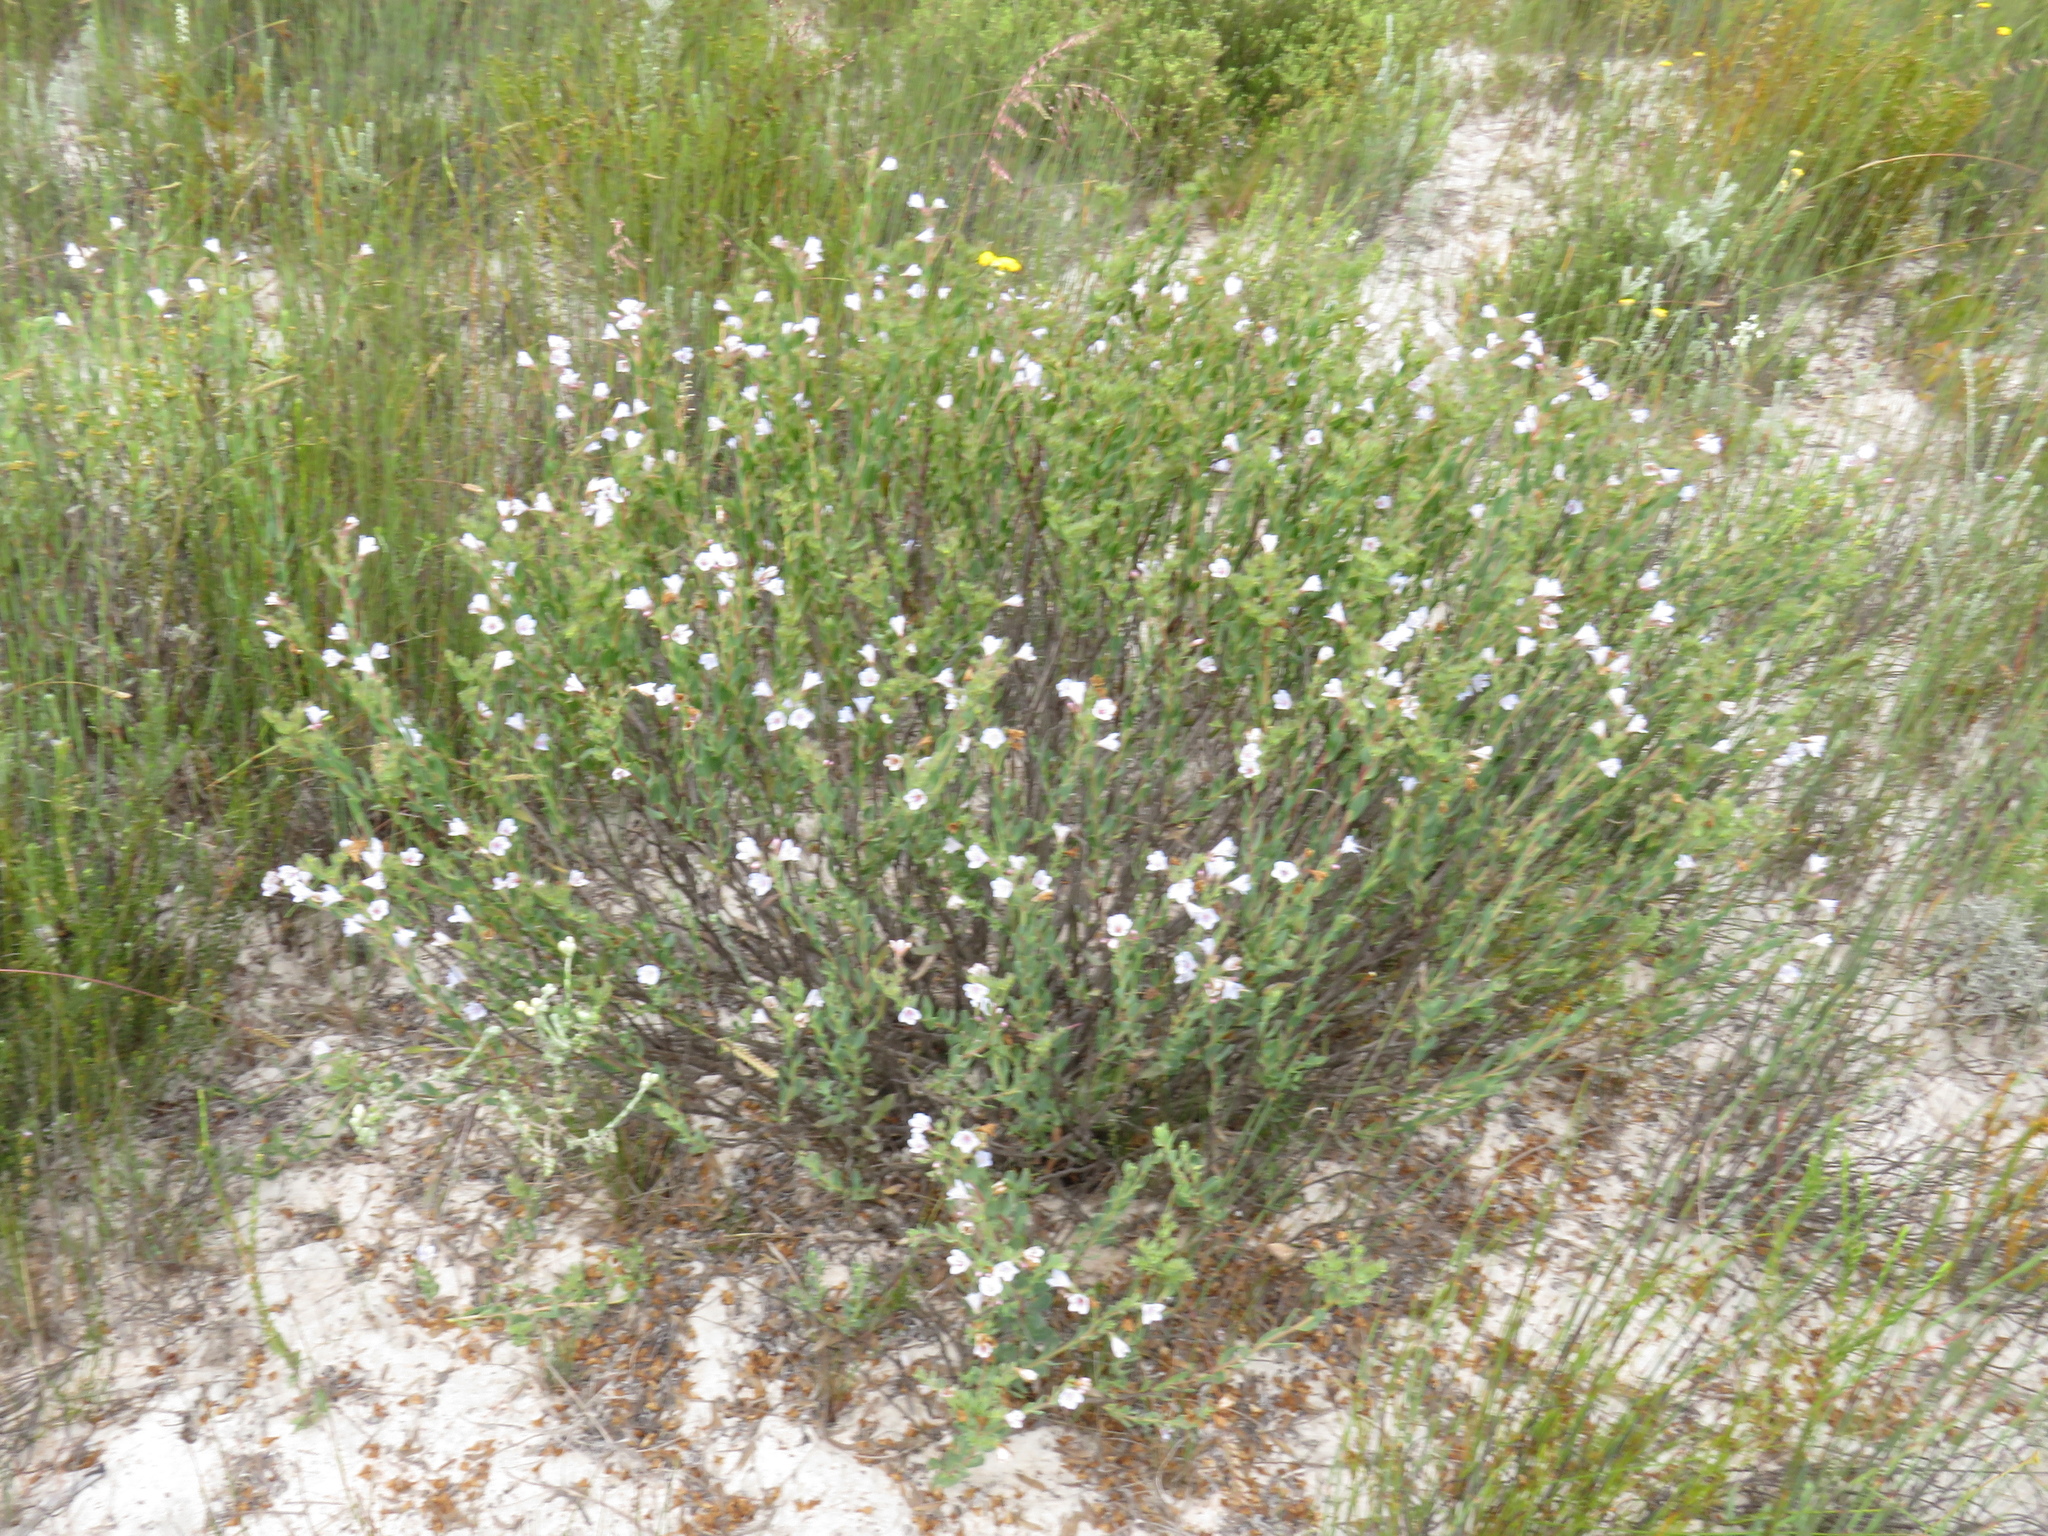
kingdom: Plantae
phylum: Tracheophyta
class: Magnoliopsida
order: Boraginales
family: Boraginaceae
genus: Lobostemon
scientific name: Lobostemon glaucophyllus
